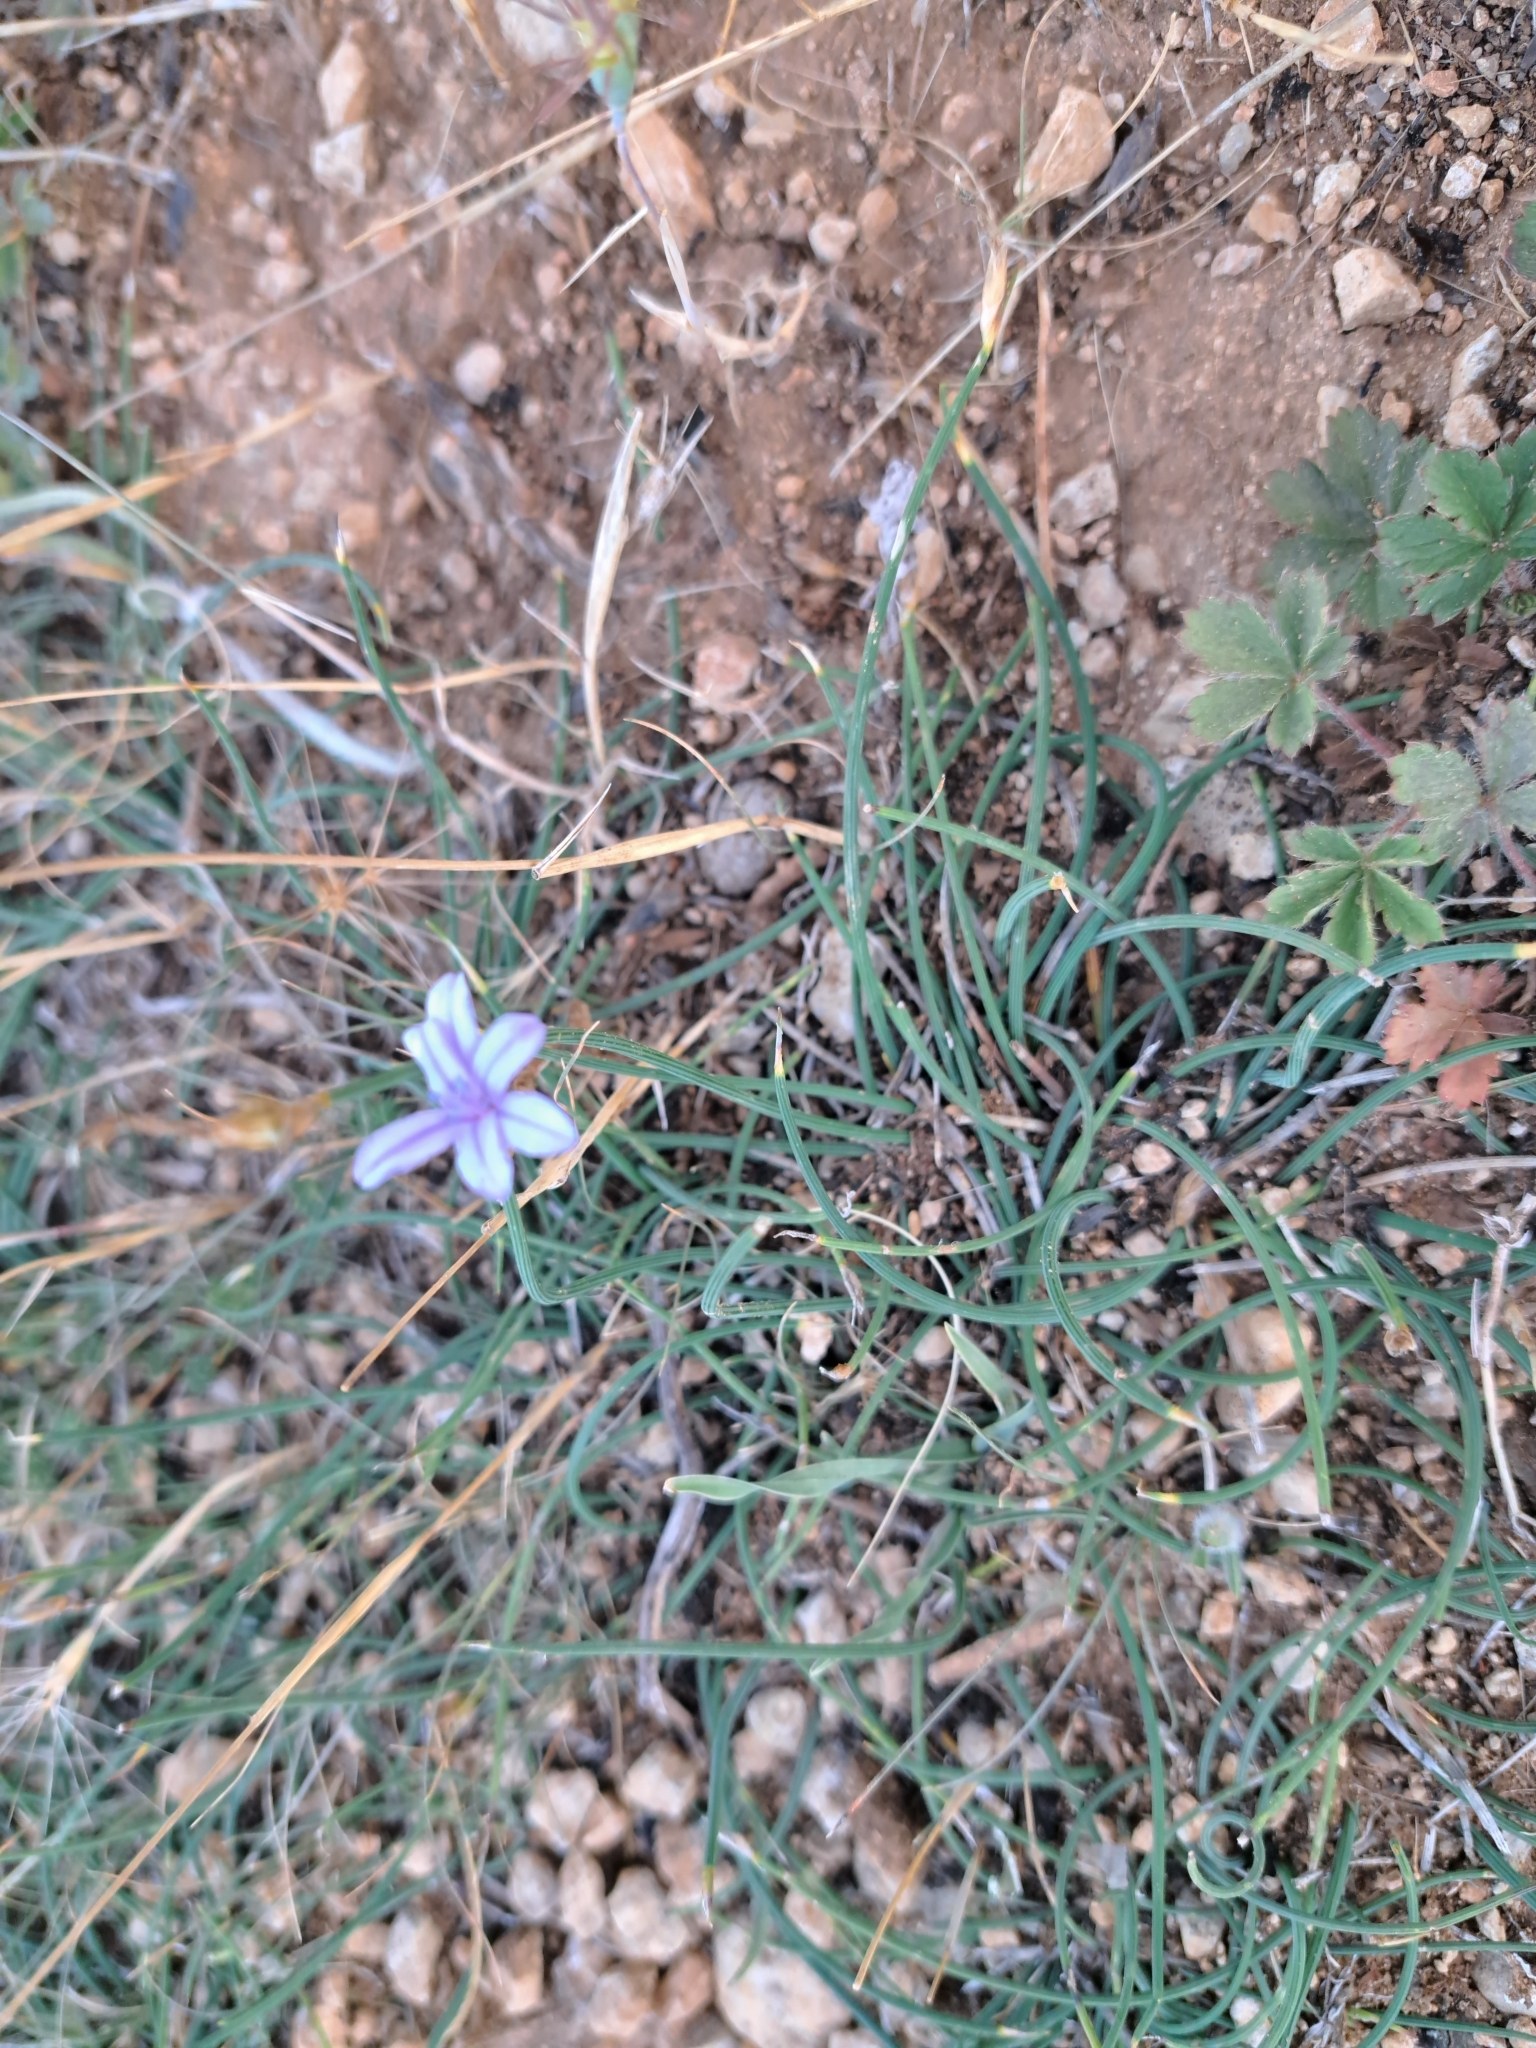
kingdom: Plantae
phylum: Tracheophyta
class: Liliopsida
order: Asparagales
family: Asparagaceae
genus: Aphyllanthes
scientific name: Aphyllanthes monspeliensis
